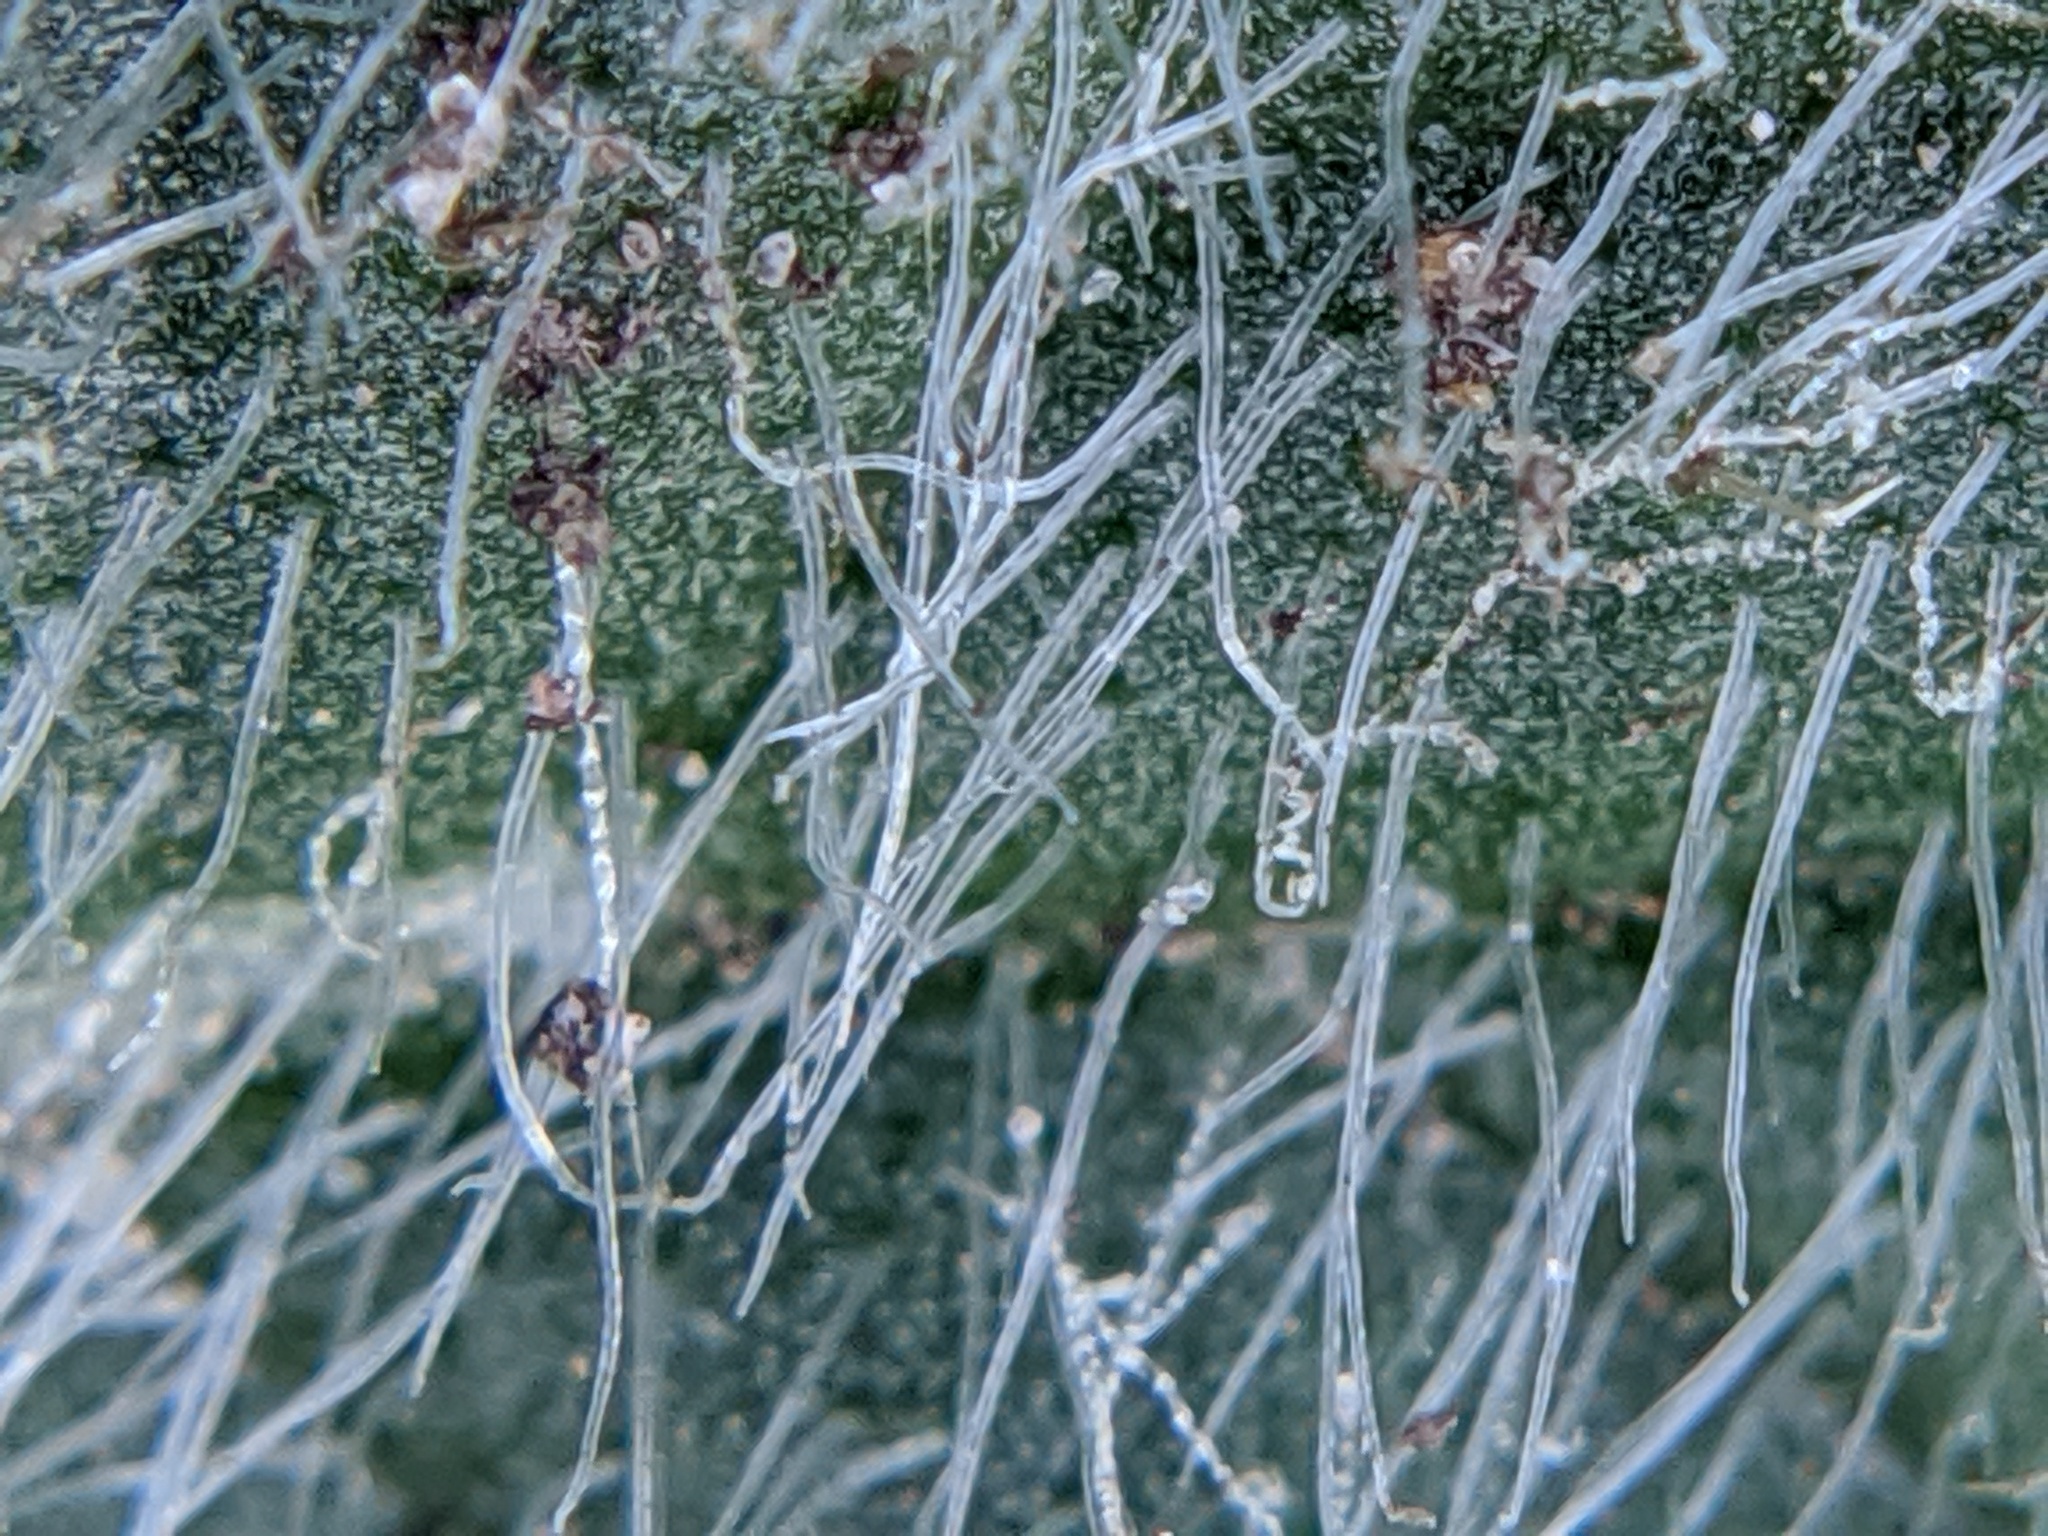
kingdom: Plantae
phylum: Tracheophyta
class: Magnoliopsida
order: Asterales
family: Asteraceae
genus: Cirsium
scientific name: Cirsium vulgare
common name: Bull thistle
